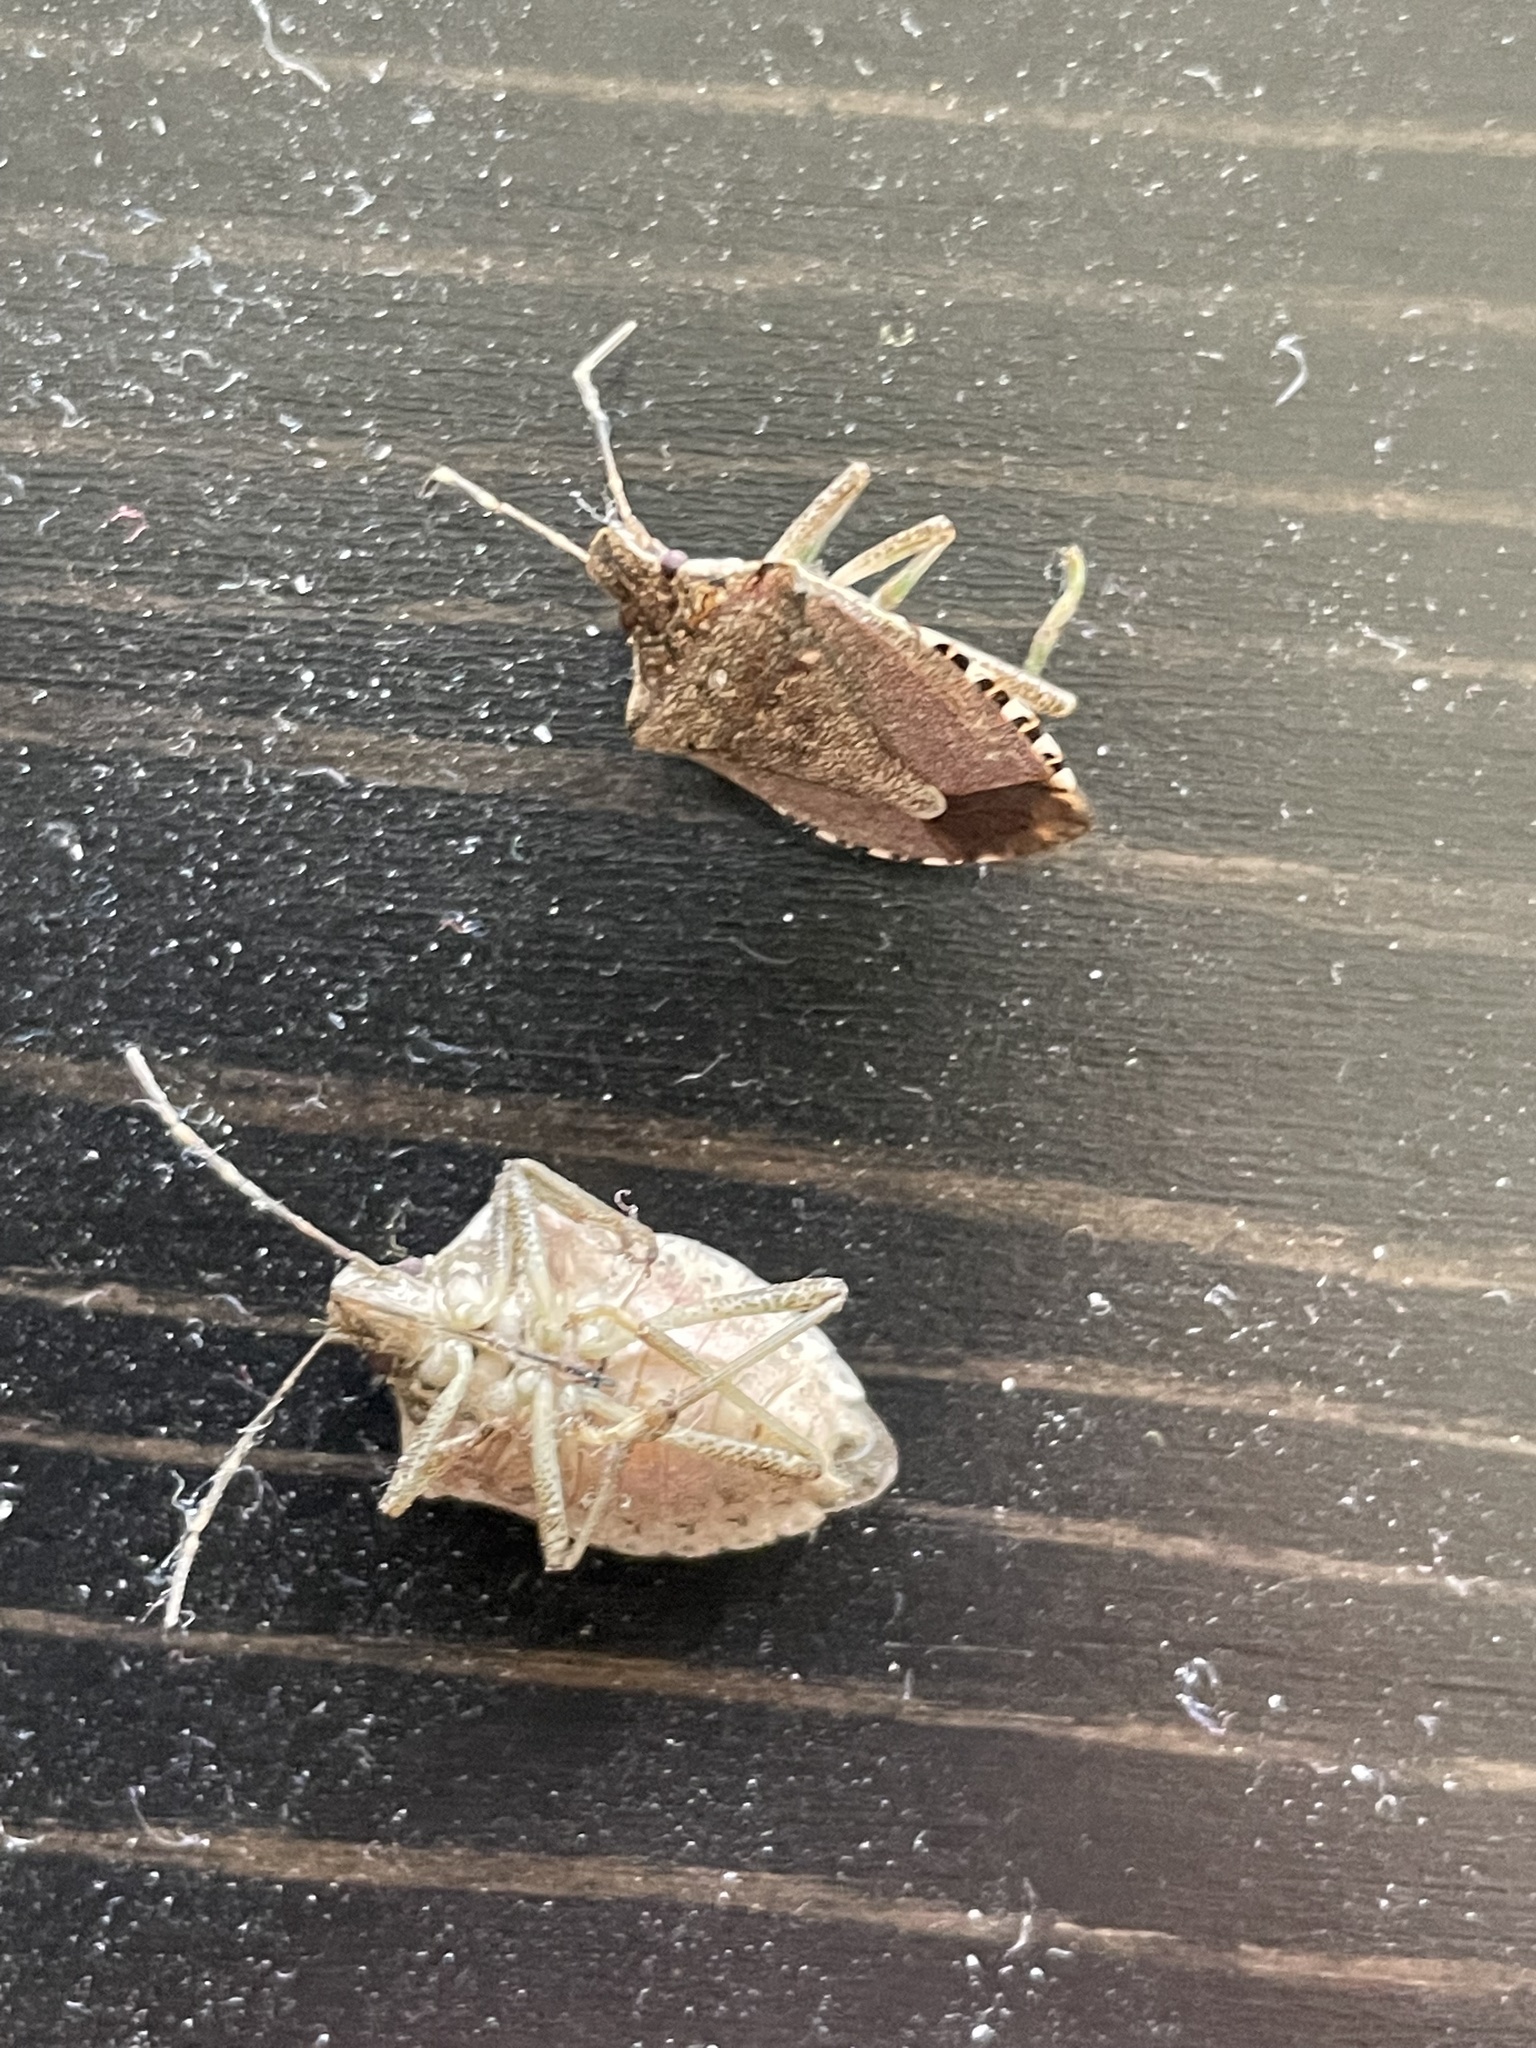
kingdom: Animalia
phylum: Arthropoda
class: Insecta
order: Hemiptera
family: Pentatomidae
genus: Halyomorpha
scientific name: Halyomorpha halys
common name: Brown marmorated stink bug
